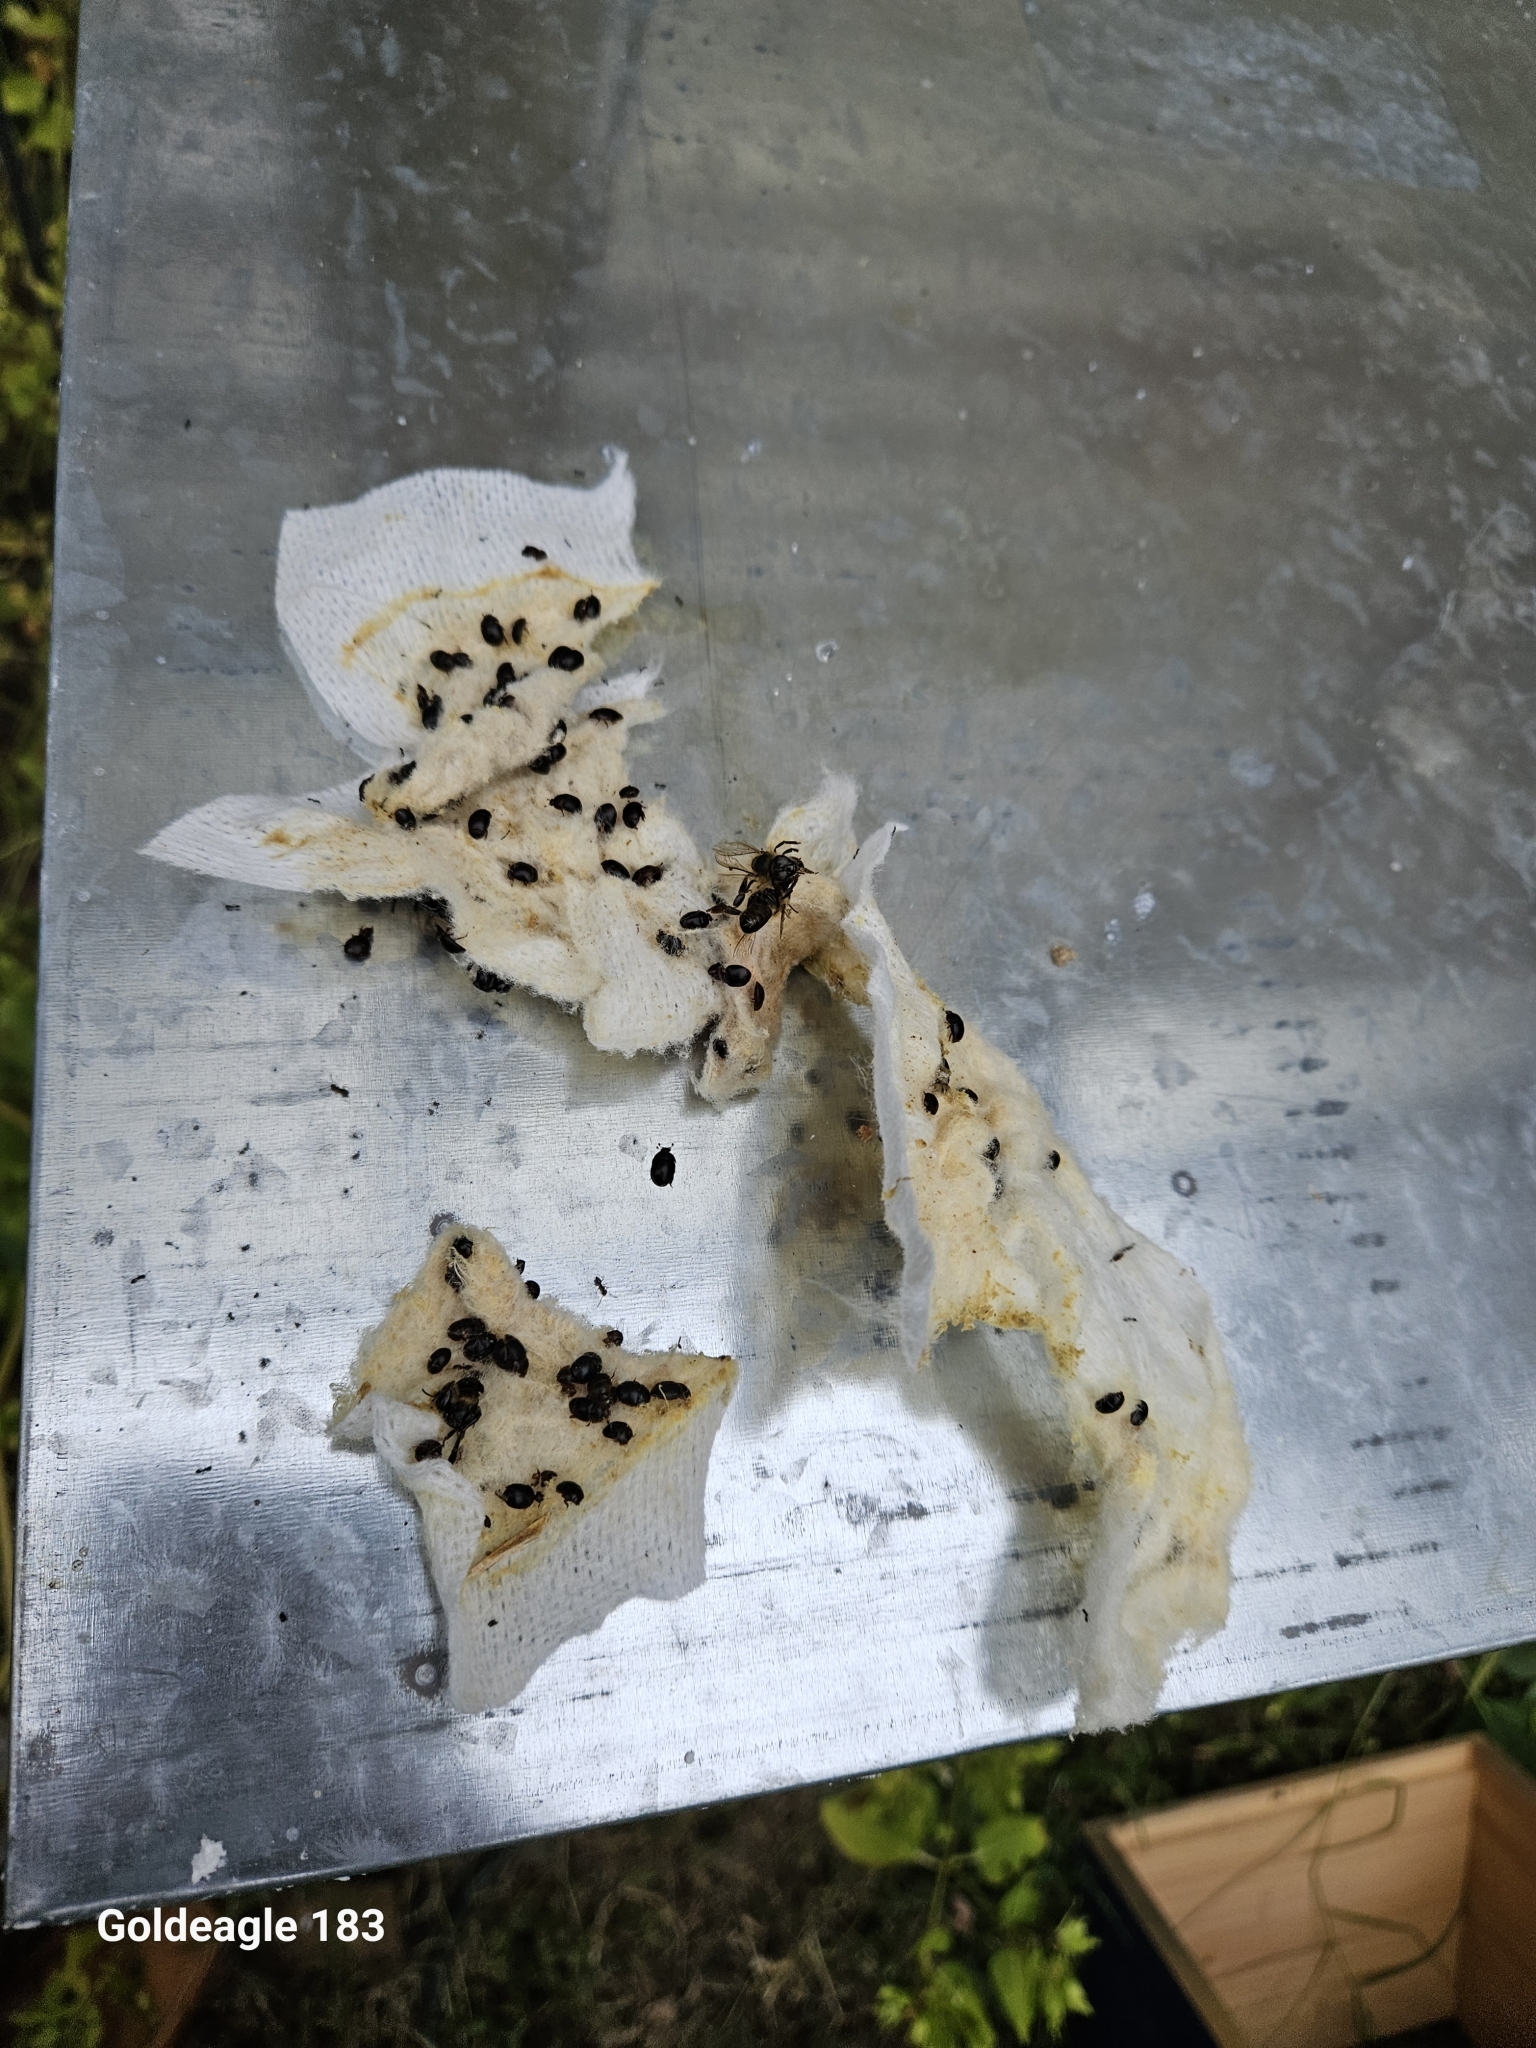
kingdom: Animalia
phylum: Arthropoda
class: Insecta
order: Coleoptera
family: Nitidulidae
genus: Aethina
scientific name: Aethina tumida
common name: Small hive beetle
